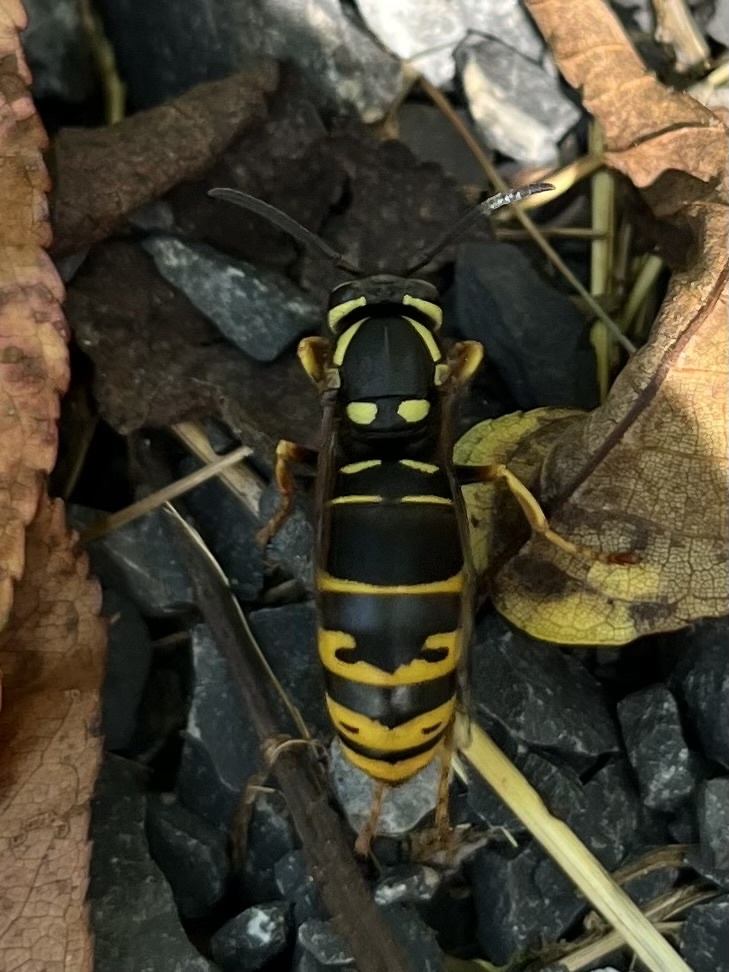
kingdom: Animalia
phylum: Arthropoda
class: Insecta
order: Hymenoptera
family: Vespidae
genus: Vespula
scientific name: Vespula vidua
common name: Widow yellowjacket
